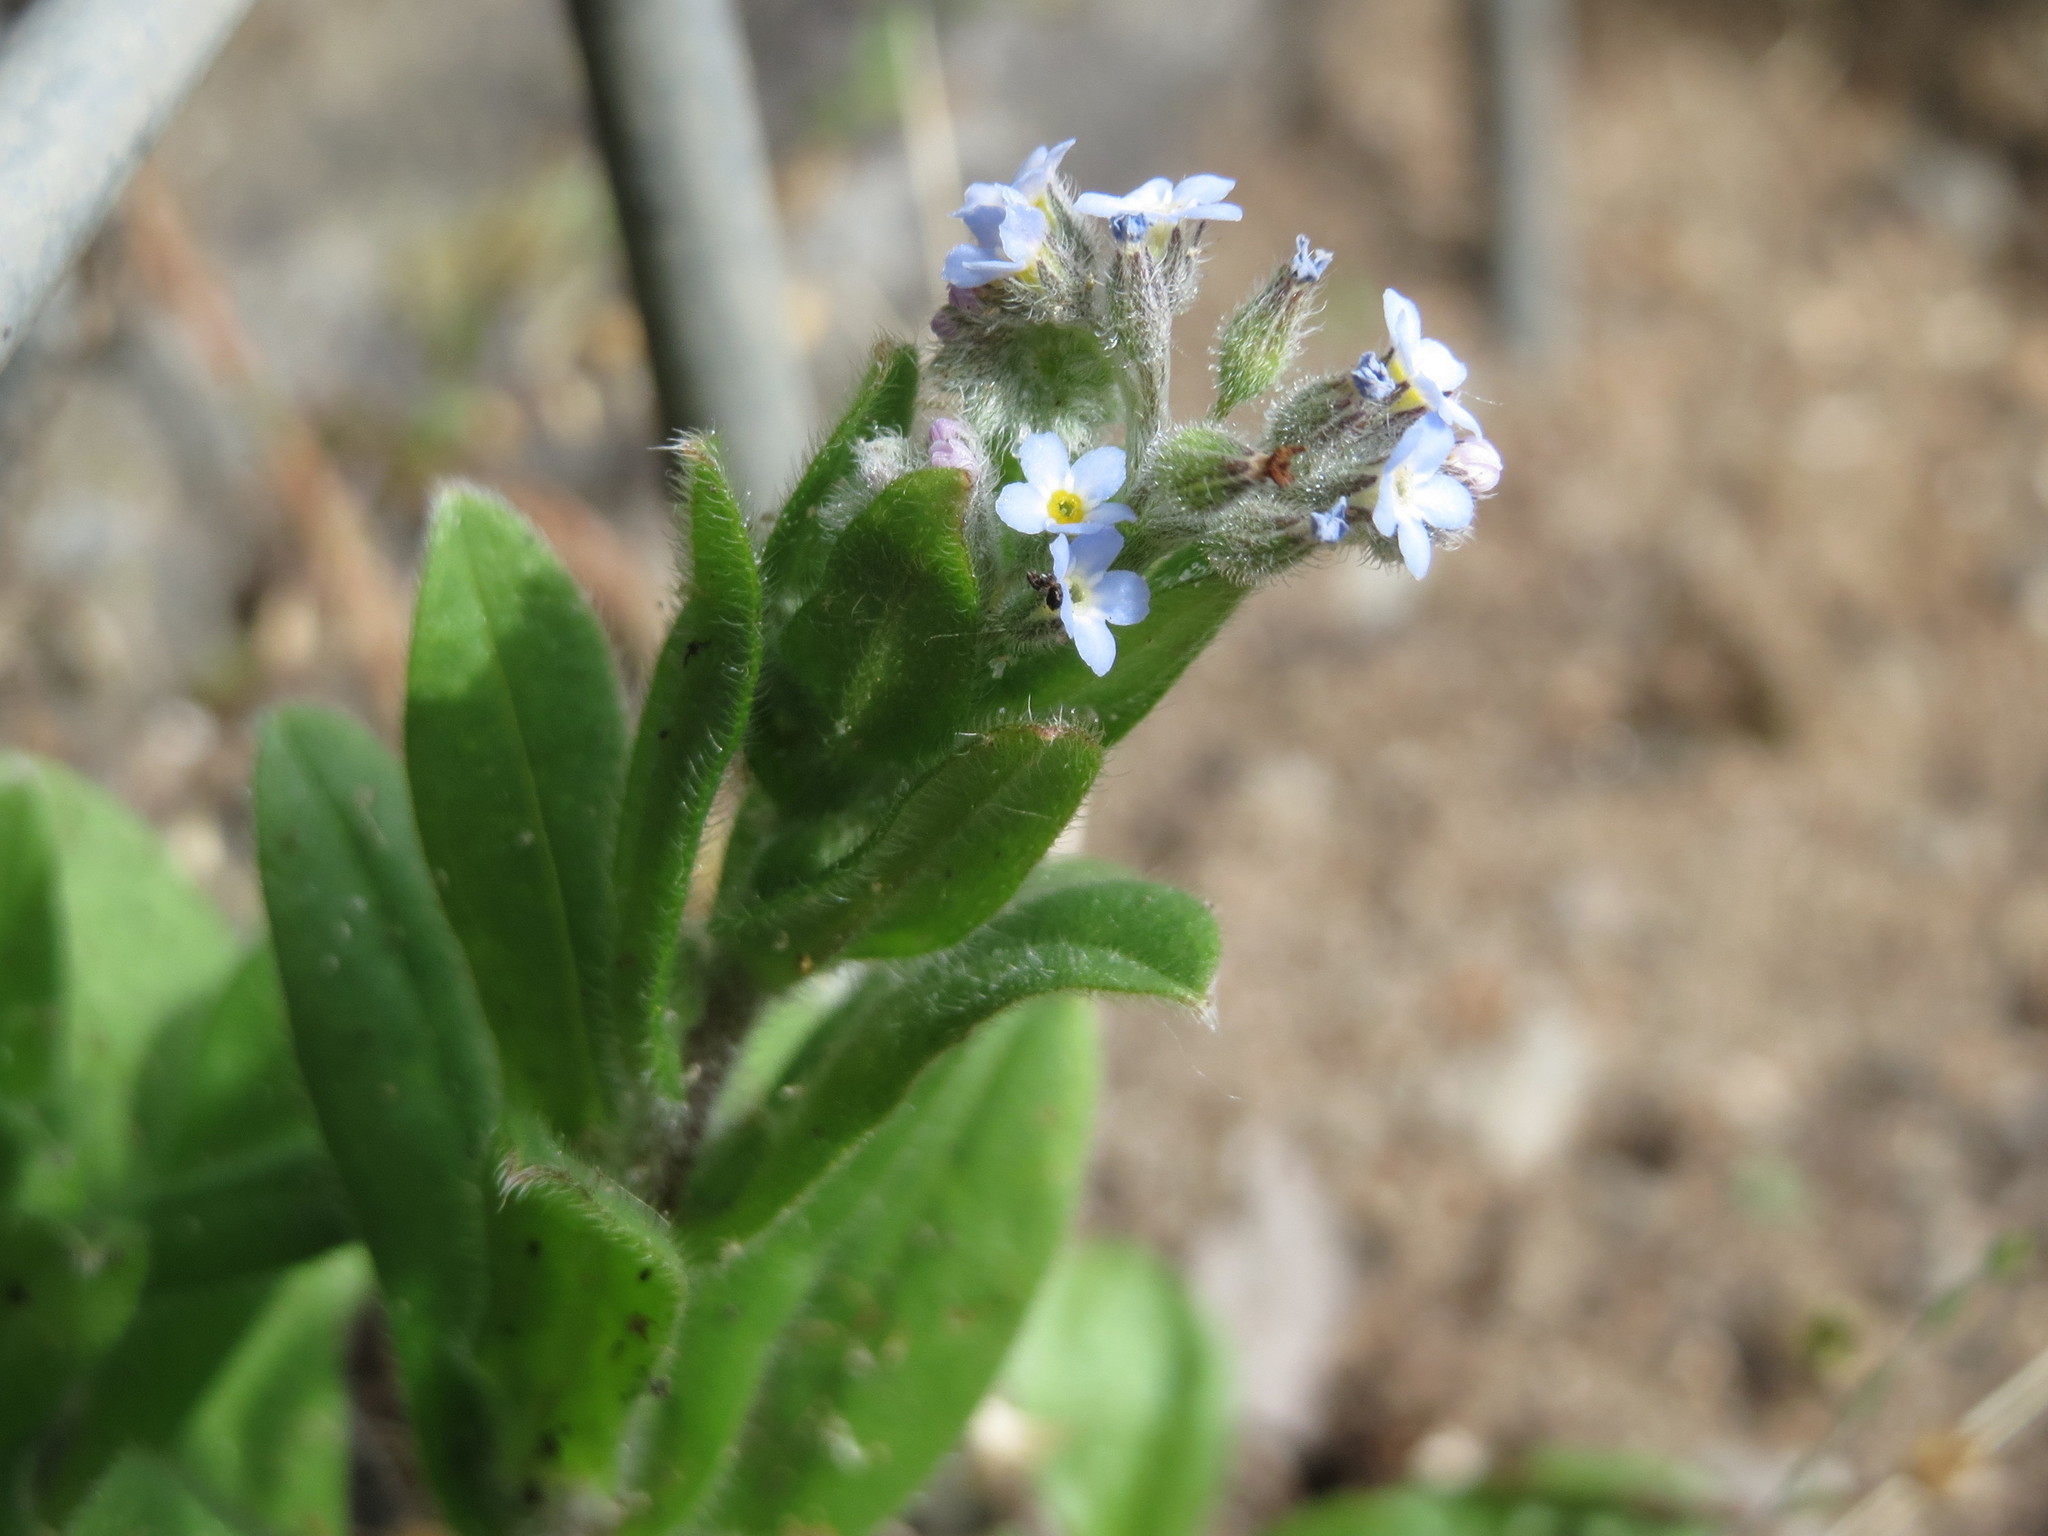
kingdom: Plantae
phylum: Tracheophyta
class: Magnoliopsida
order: Boraginales
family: Boraginaceae
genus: Myosotis
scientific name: Myosotis arvensis
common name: Field forget-me-not
